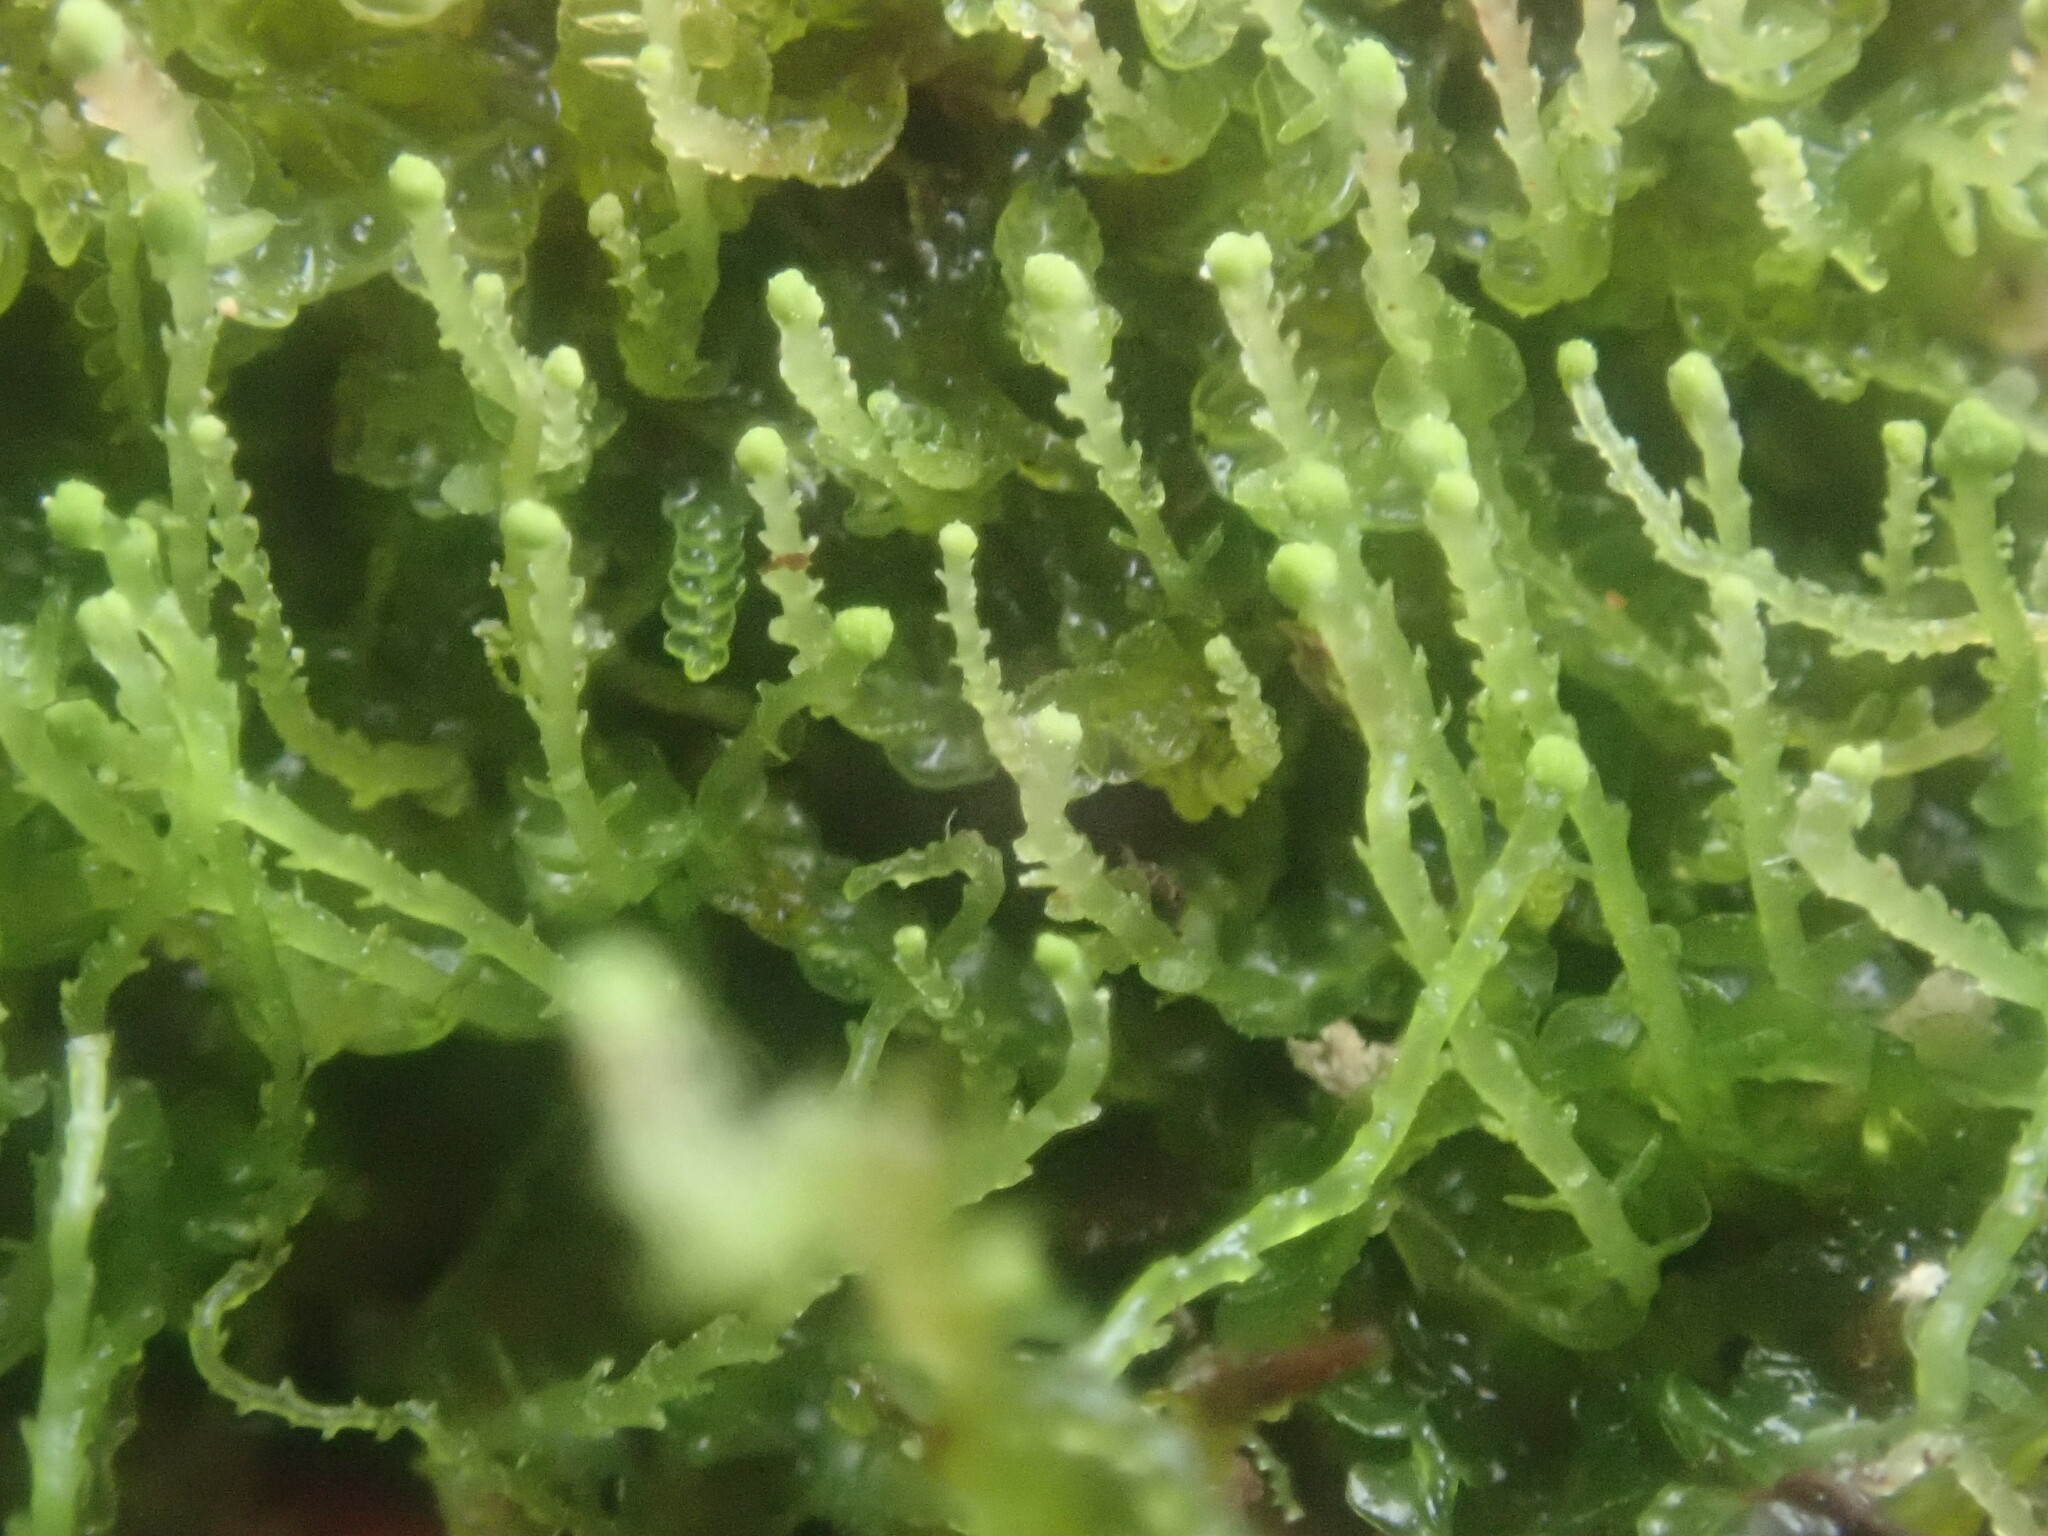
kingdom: Plantae
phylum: Marchantiophyta
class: Jungermanniopsida
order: Jungermanniales
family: Cephaloziaceae
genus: Odontoschisma
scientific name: Odontoschisma denudatum
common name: Matchstick flapwort
